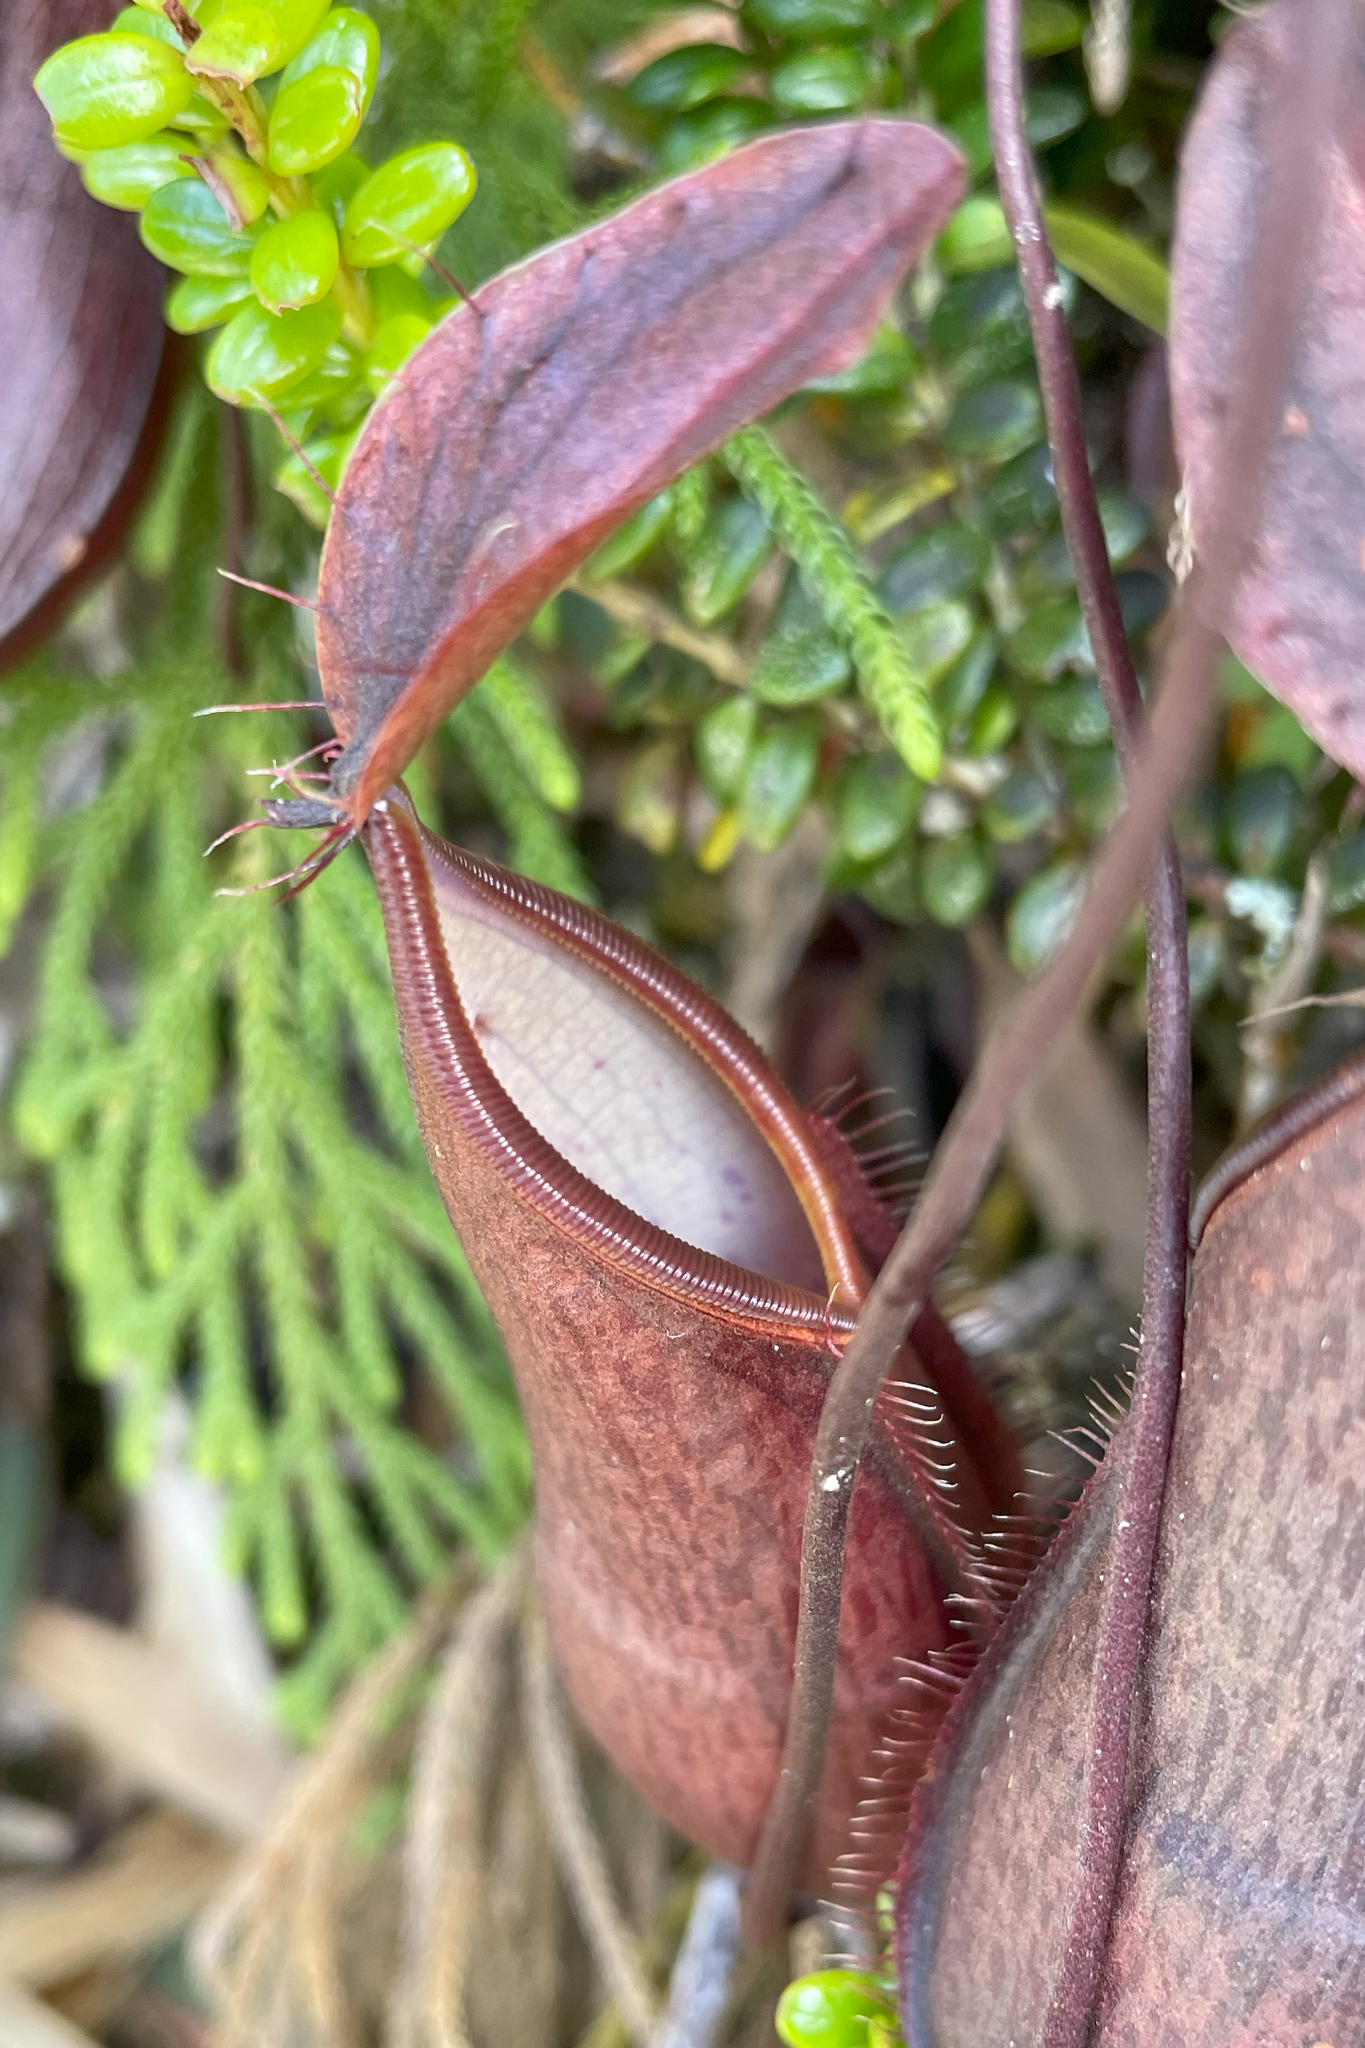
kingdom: Plantae
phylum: Tracheophyta
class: Magnoliopsida
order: Caryophyllales
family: Nepenthaceae
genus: Nepenthes
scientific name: Nepenthes tentaculata
